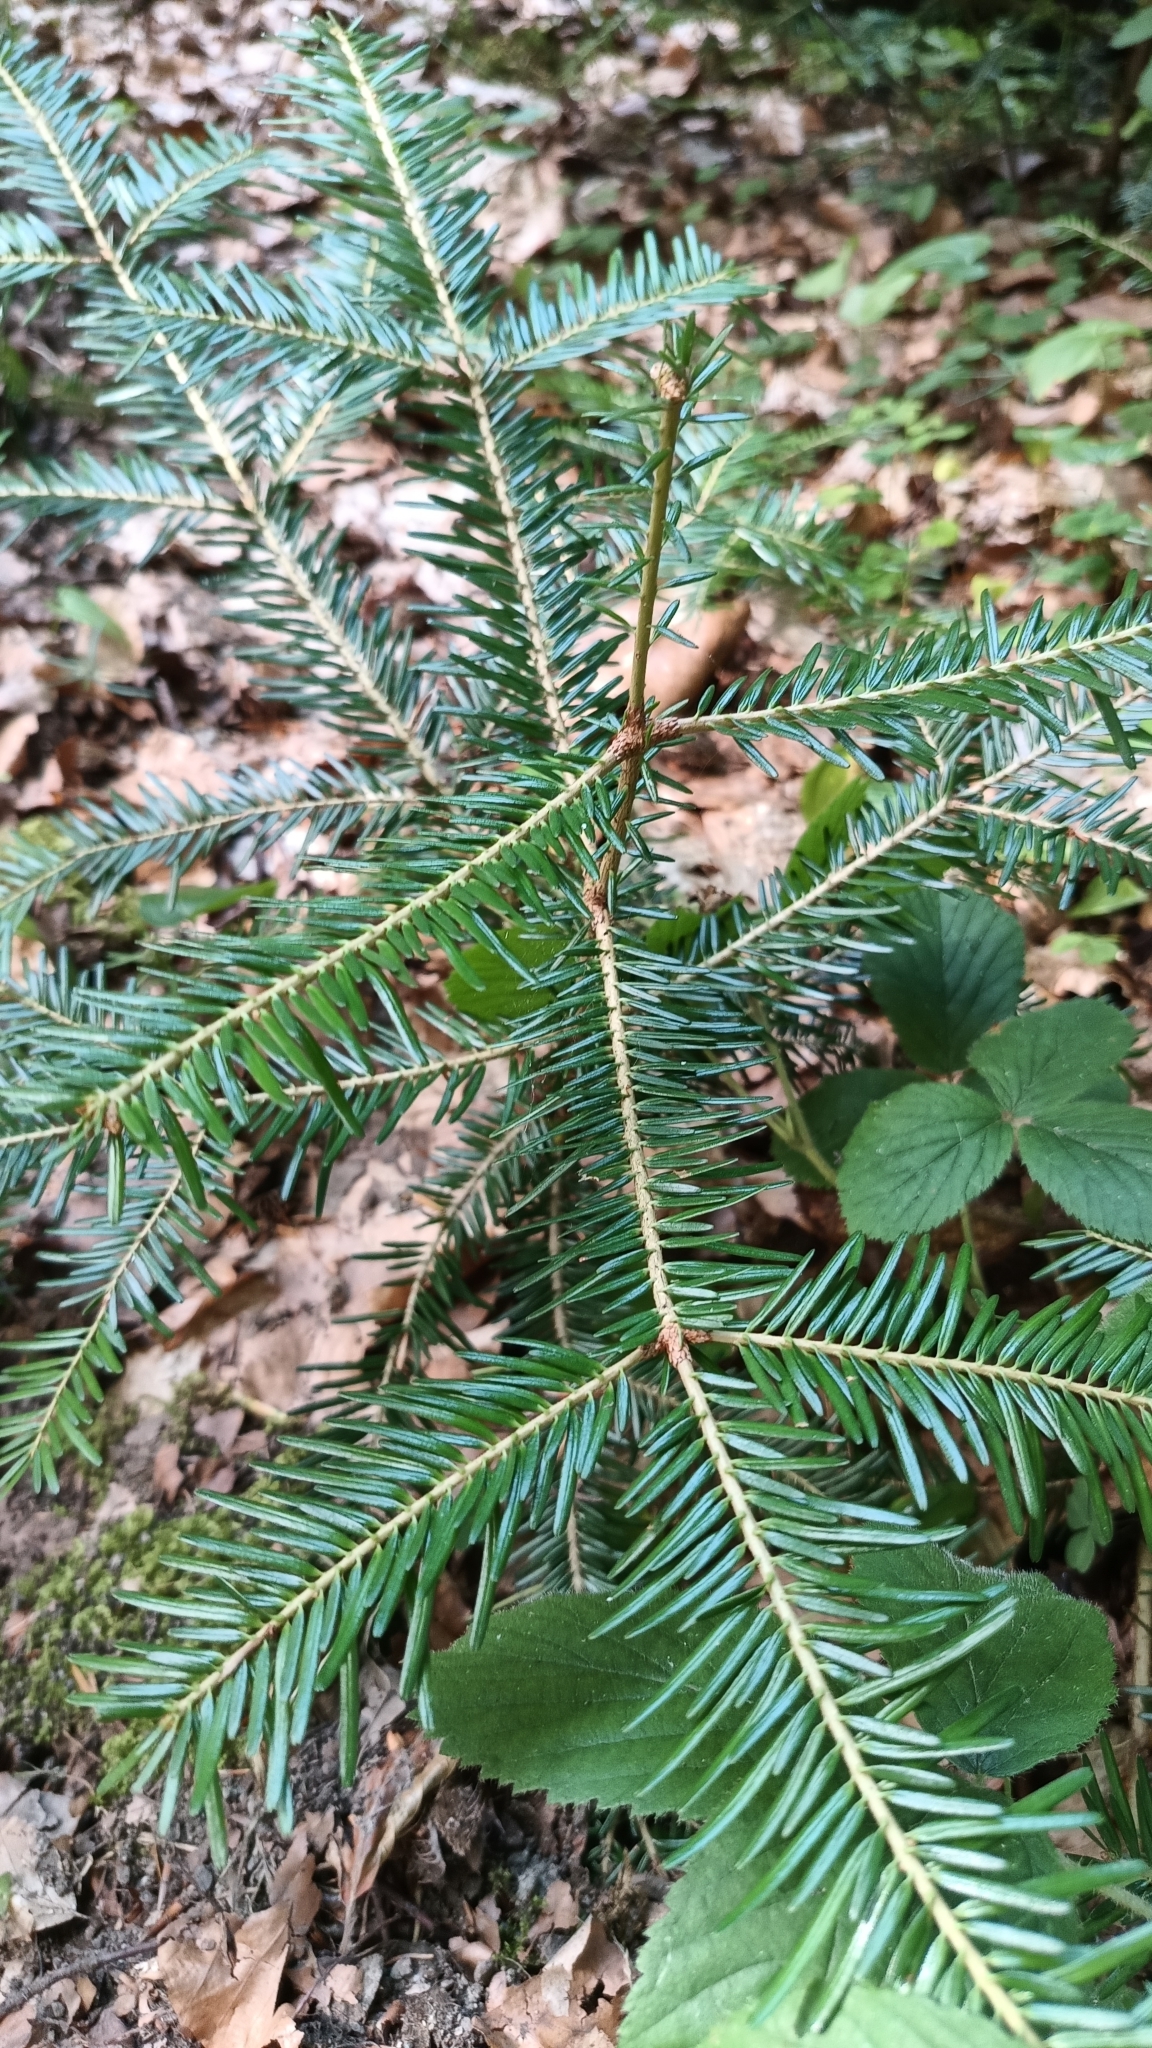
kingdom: Plantae
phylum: Tracheophyta
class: Pinopsida
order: Pinales
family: Pinaceae
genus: Abies
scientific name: Abies alba
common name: Silver fir
